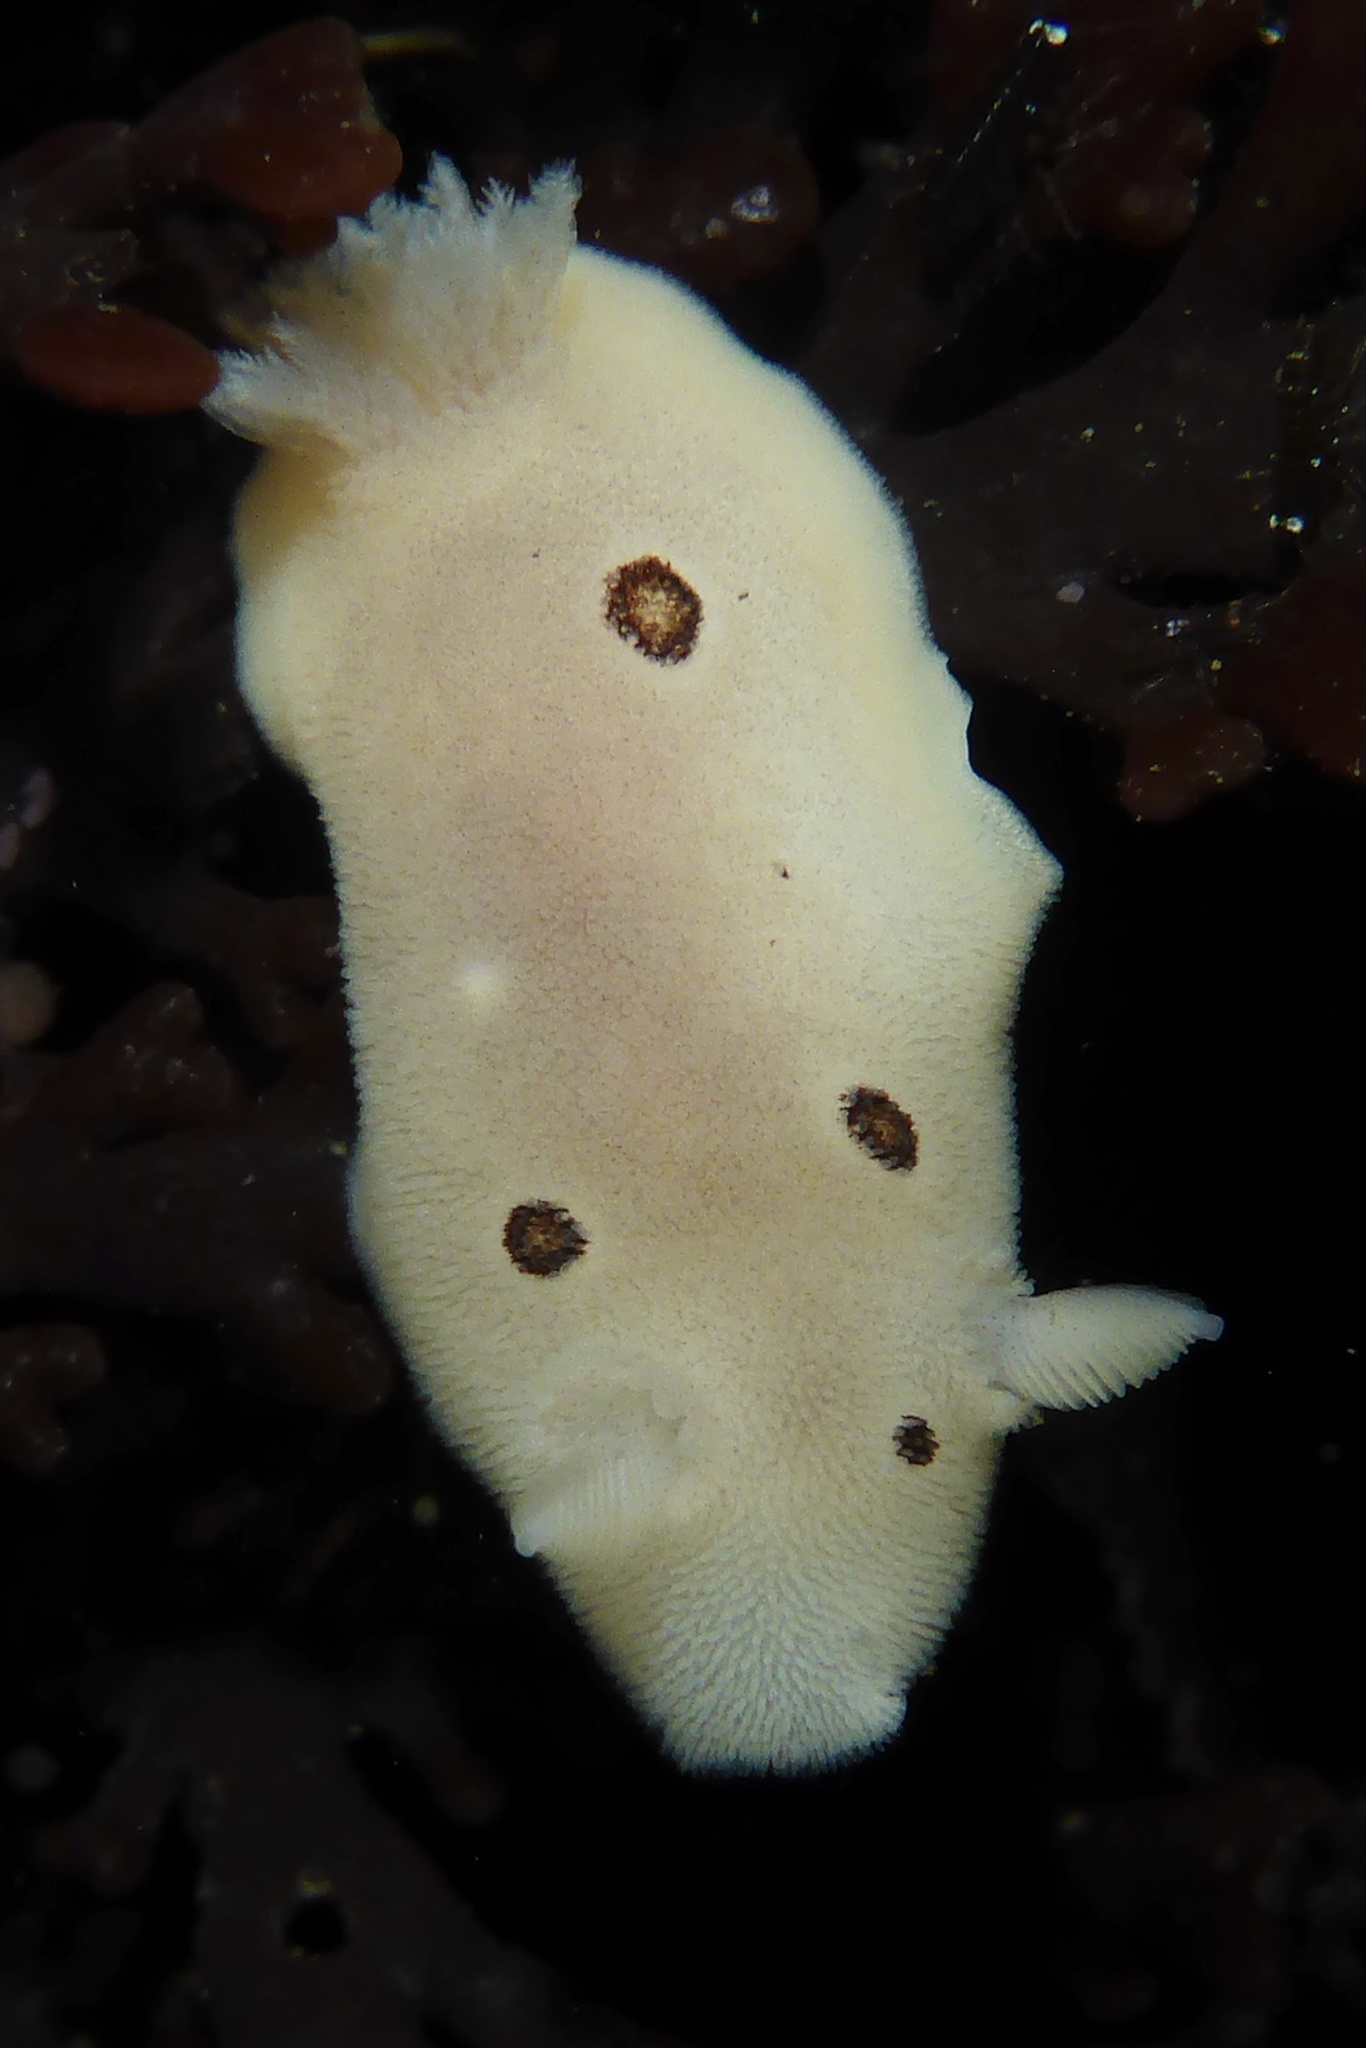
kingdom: Animalia
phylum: Mollusca
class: Gastropoda
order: Nudibranchia
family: Discodorididae
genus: Diaulula
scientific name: Diaulula sandiegensis
